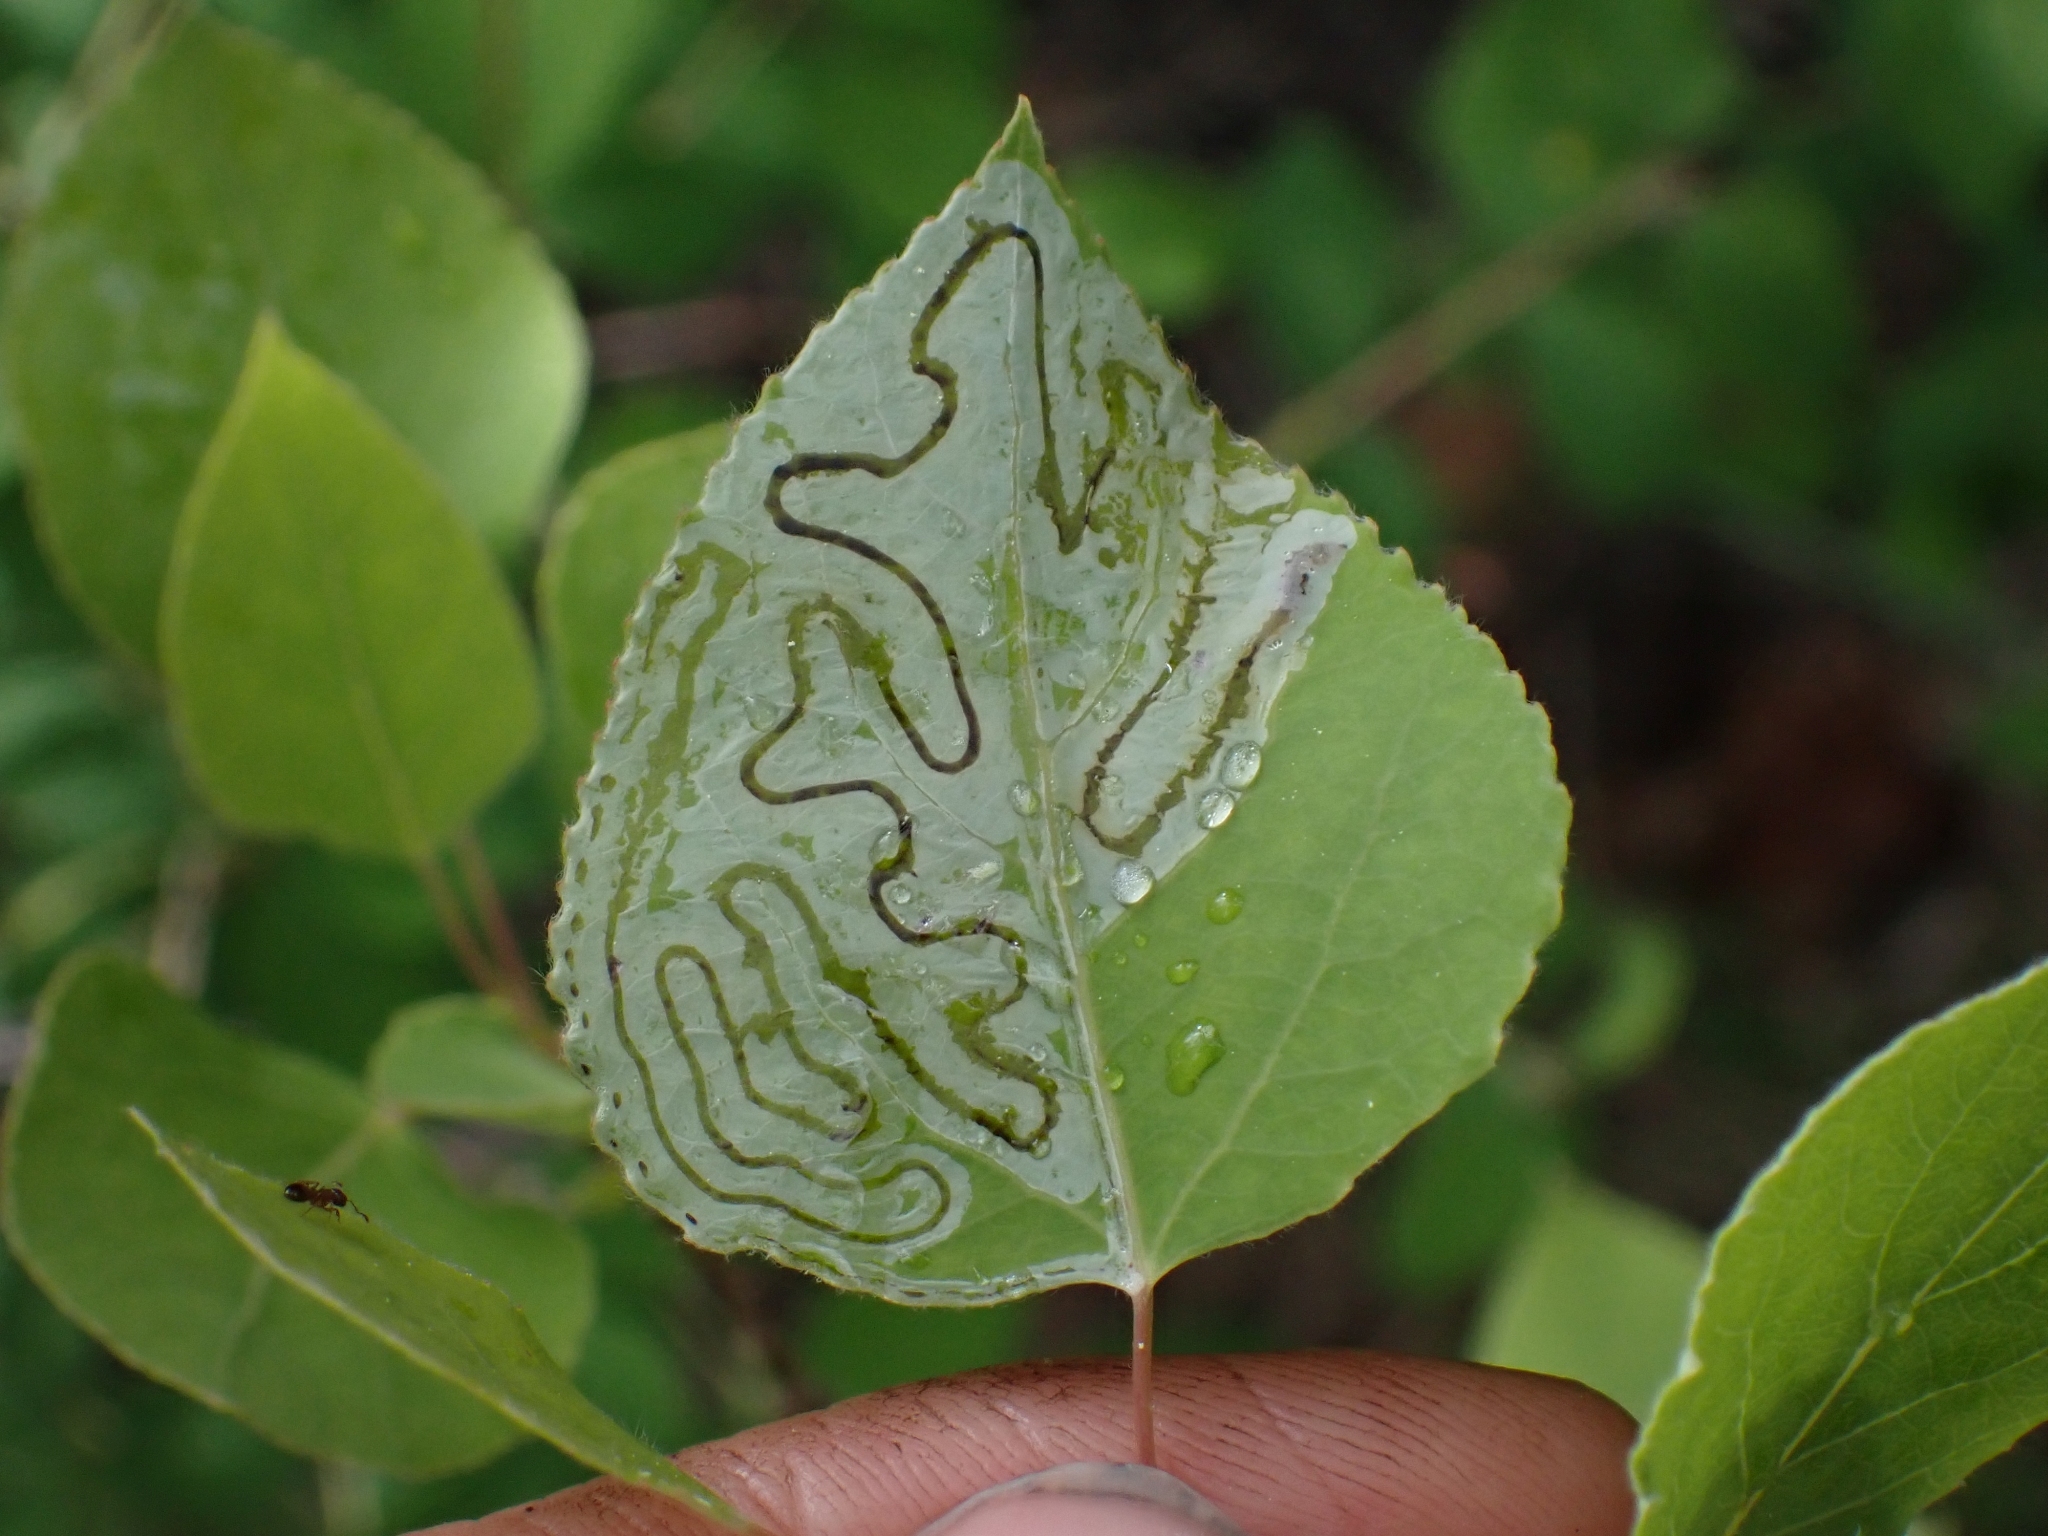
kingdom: Animalia
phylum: Arthropoda
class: Insecta
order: Lepidoptera
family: Gracillariidae
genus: Phyllocnistis
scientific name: Phyllocnistis populiella
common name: Aspen serpentine leafminer moth
